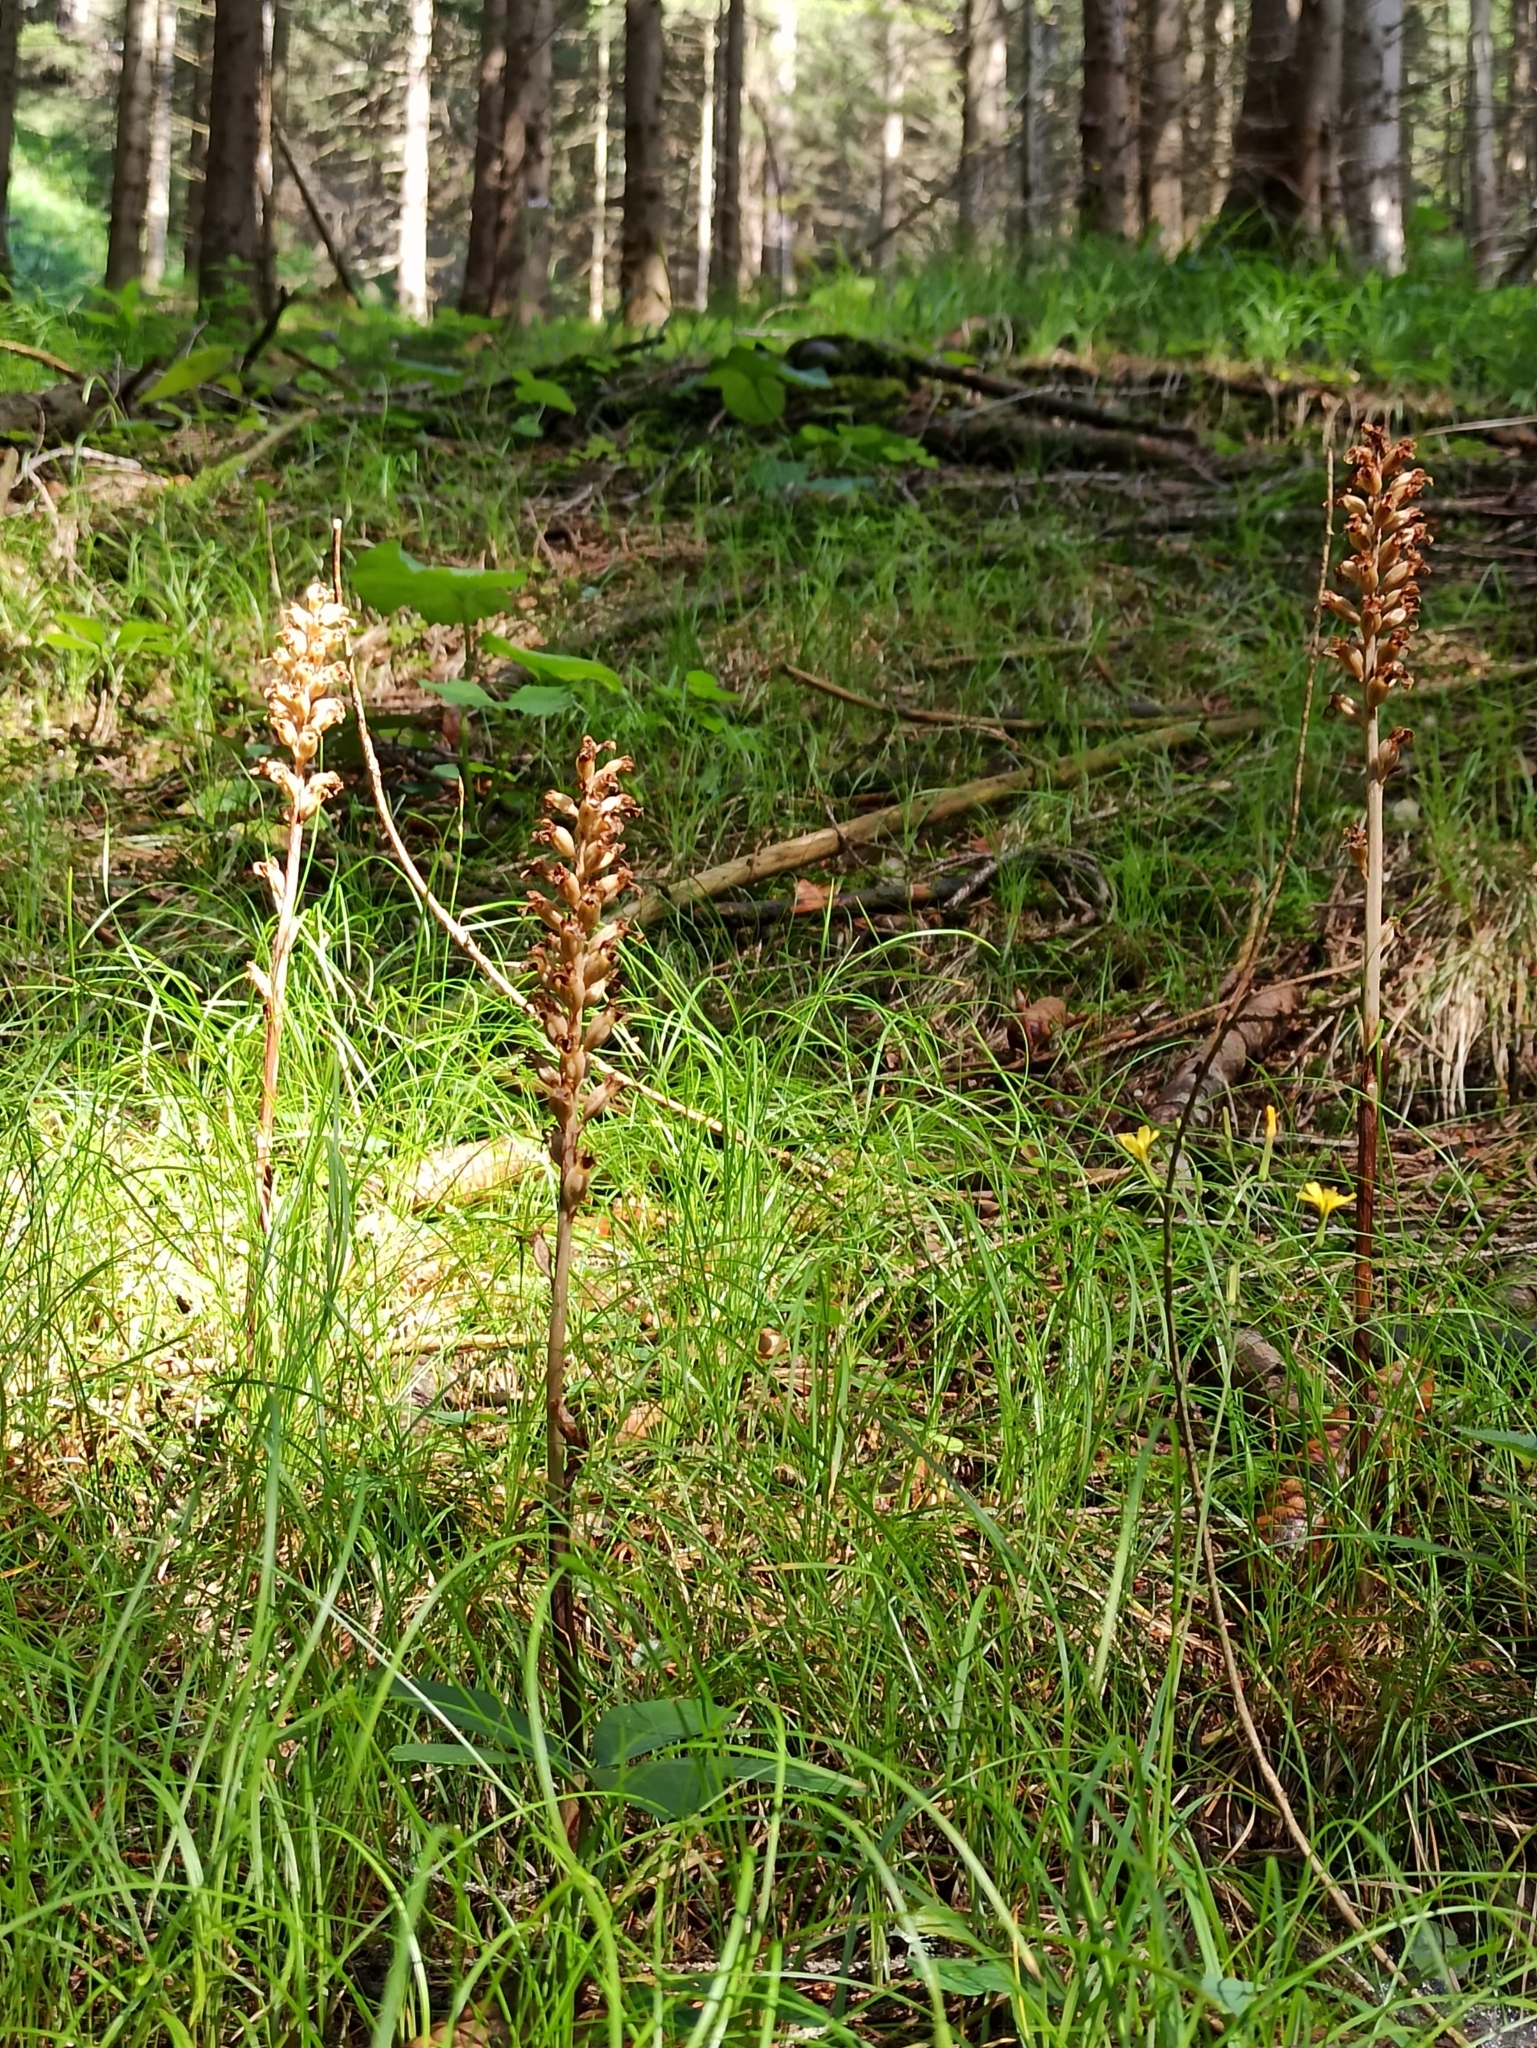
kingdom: Plantae
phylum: Tracheophyta
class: Liliopsida
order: Asparagales
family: Orchidaceae
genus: Neottia
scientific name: Neottia nidus-avis
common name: Bird's-nest orchid
